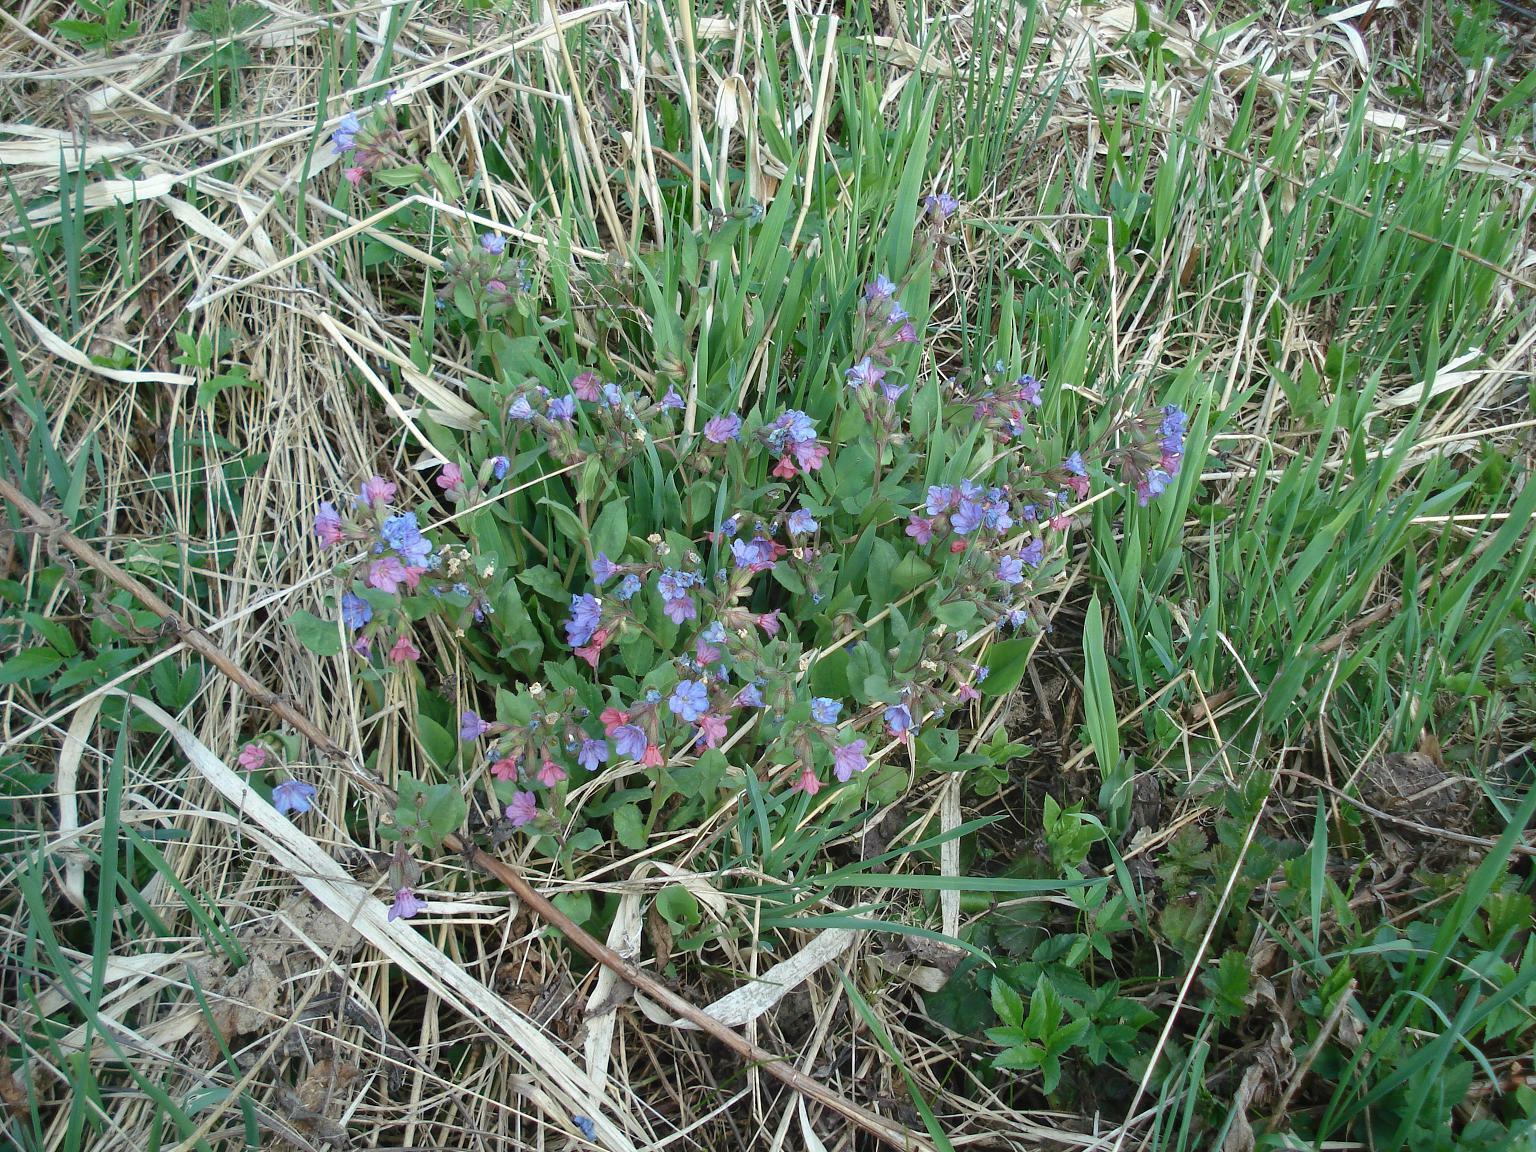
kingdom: Plantae
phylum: Tracheophyta
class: Magnoliopsida
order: Boraginales
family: Boraginaceae
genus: Pulmonaria
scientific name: Pulmonaria obscura
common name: Suffolk lungwort
